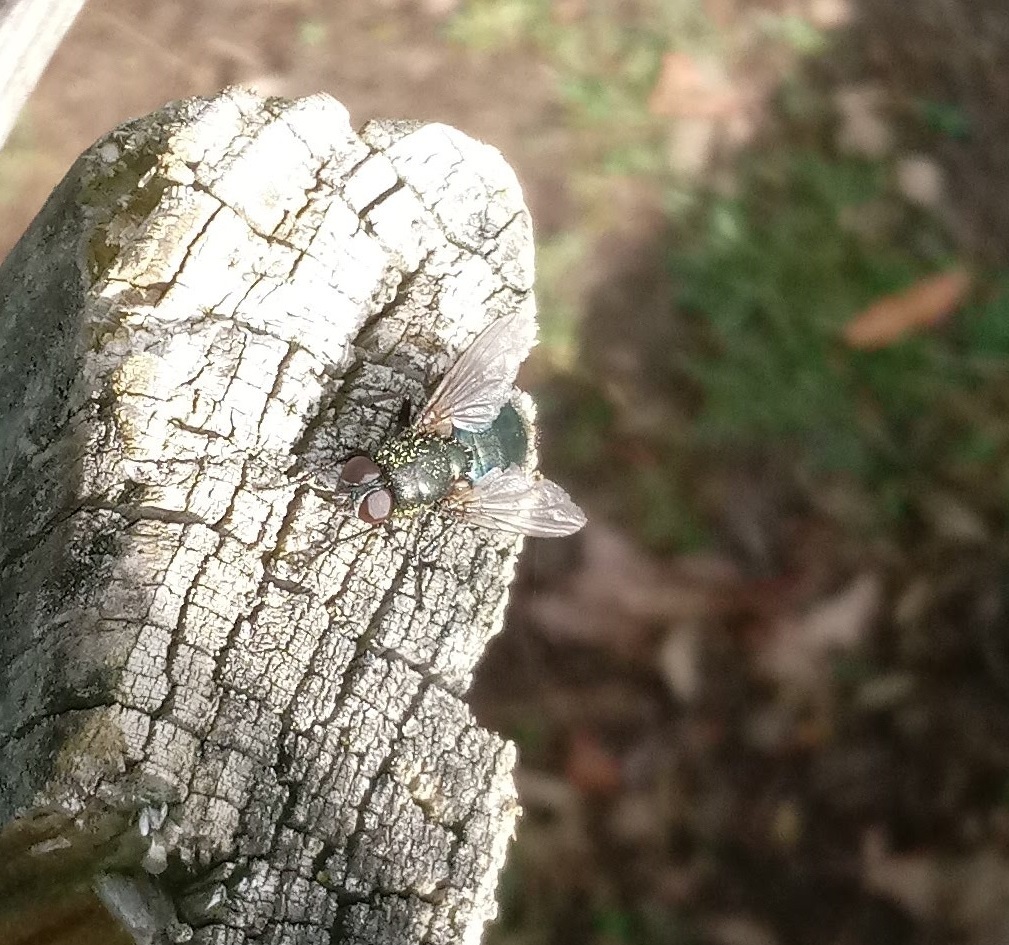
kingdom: Animalia
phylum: Arthropoda
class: Insecta
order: Diptera
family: Calliphoridae
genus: Protophormia
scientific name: Protophormia terraenovae
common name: Blackbottle
